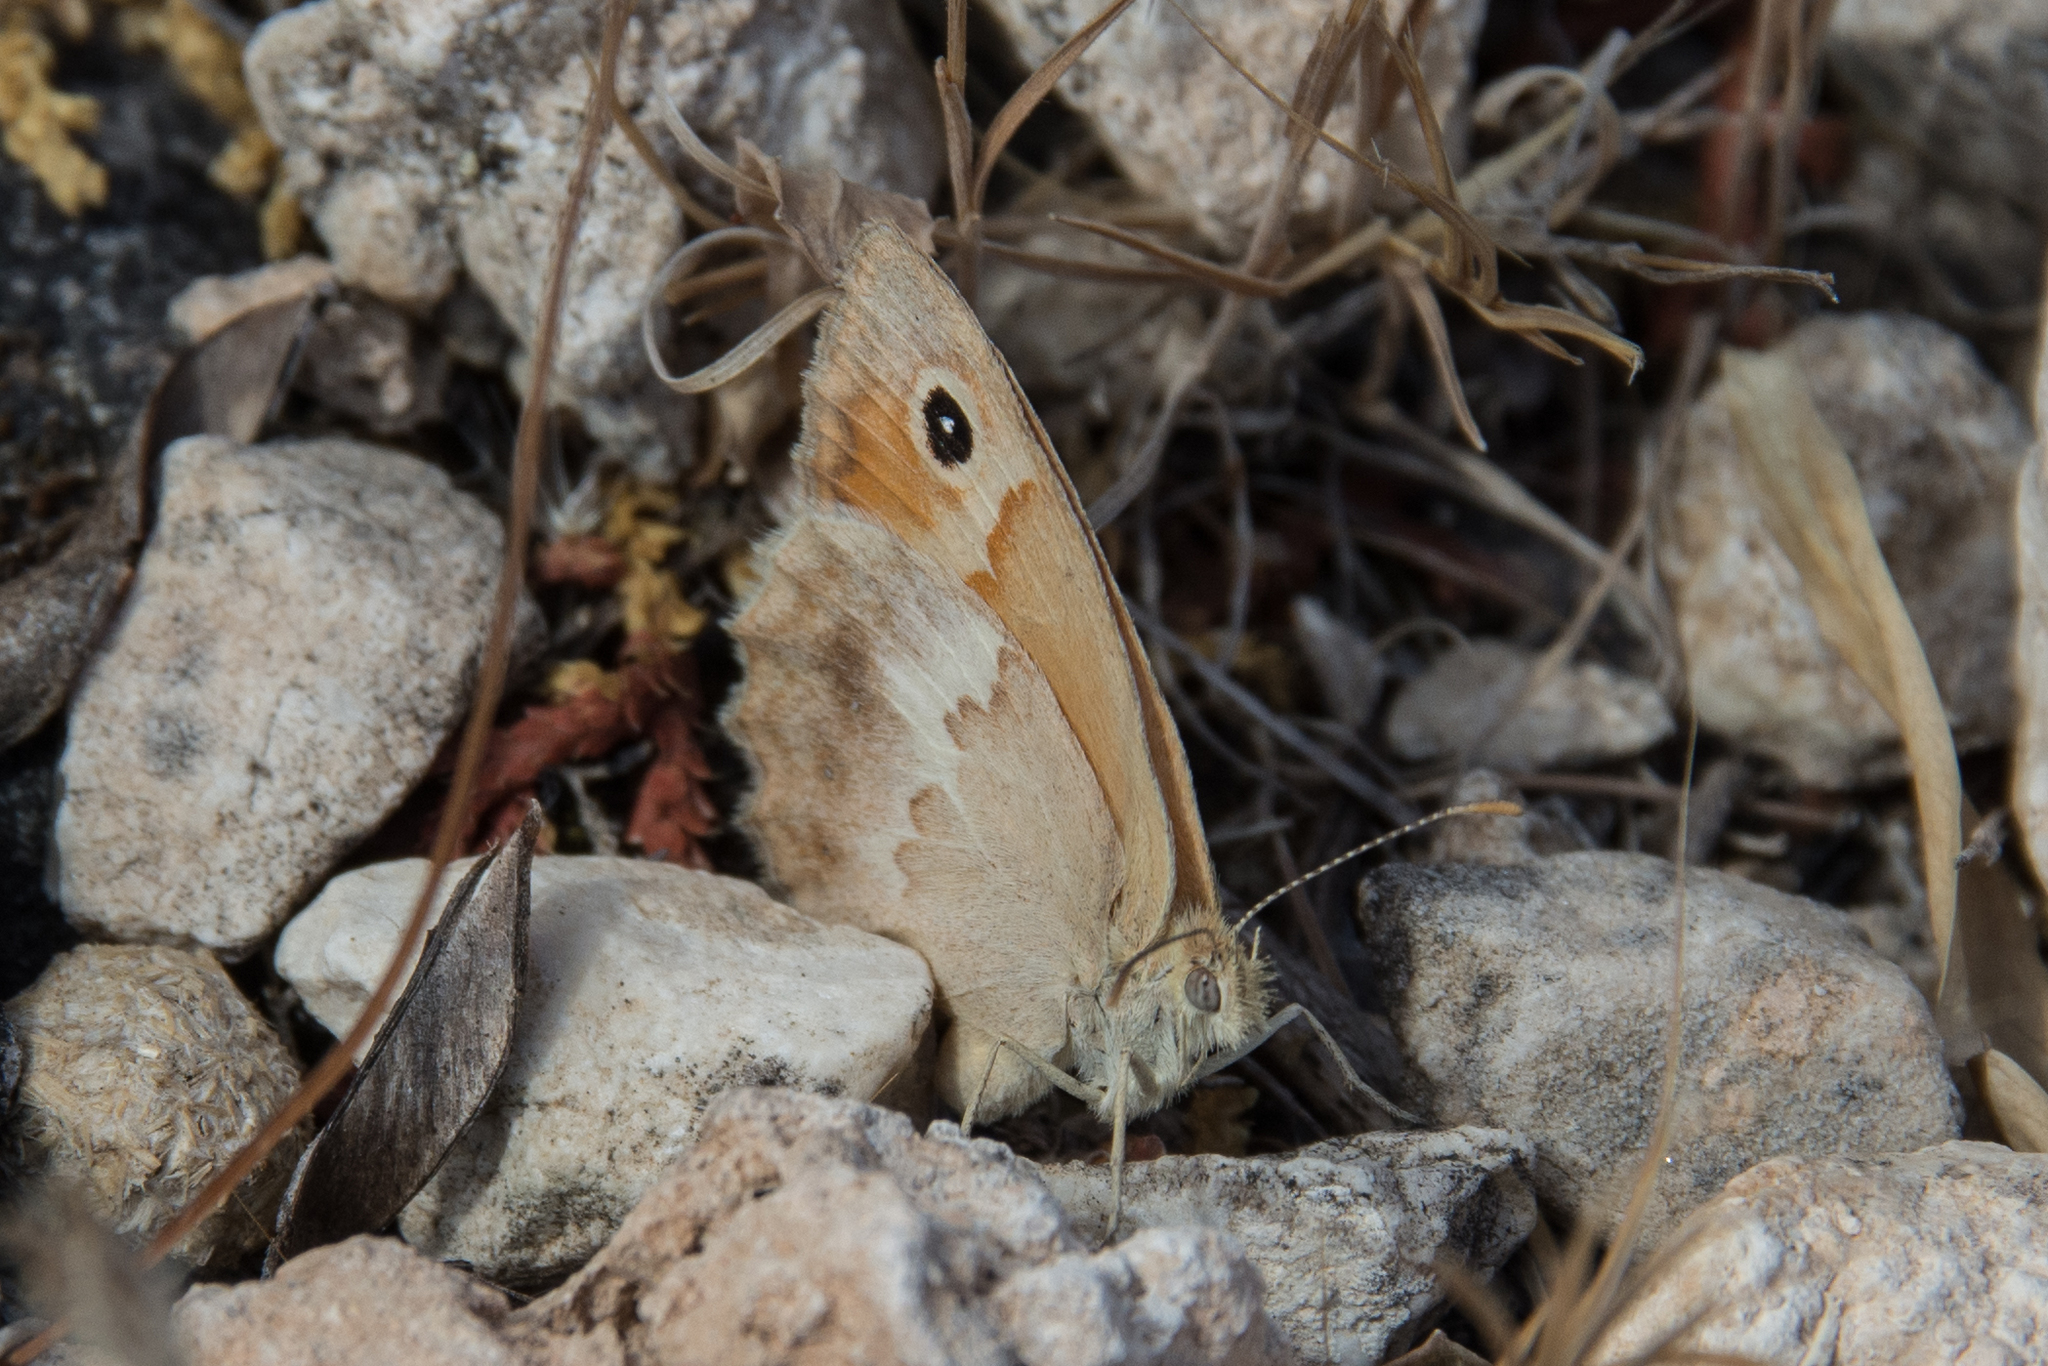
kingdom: Animalia
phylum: Arthropoda
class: Insecta
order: Lepidoptera
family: Nymphalidae
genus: Coenonympha
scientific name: Coenonympha pamphilus
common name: Small heath
